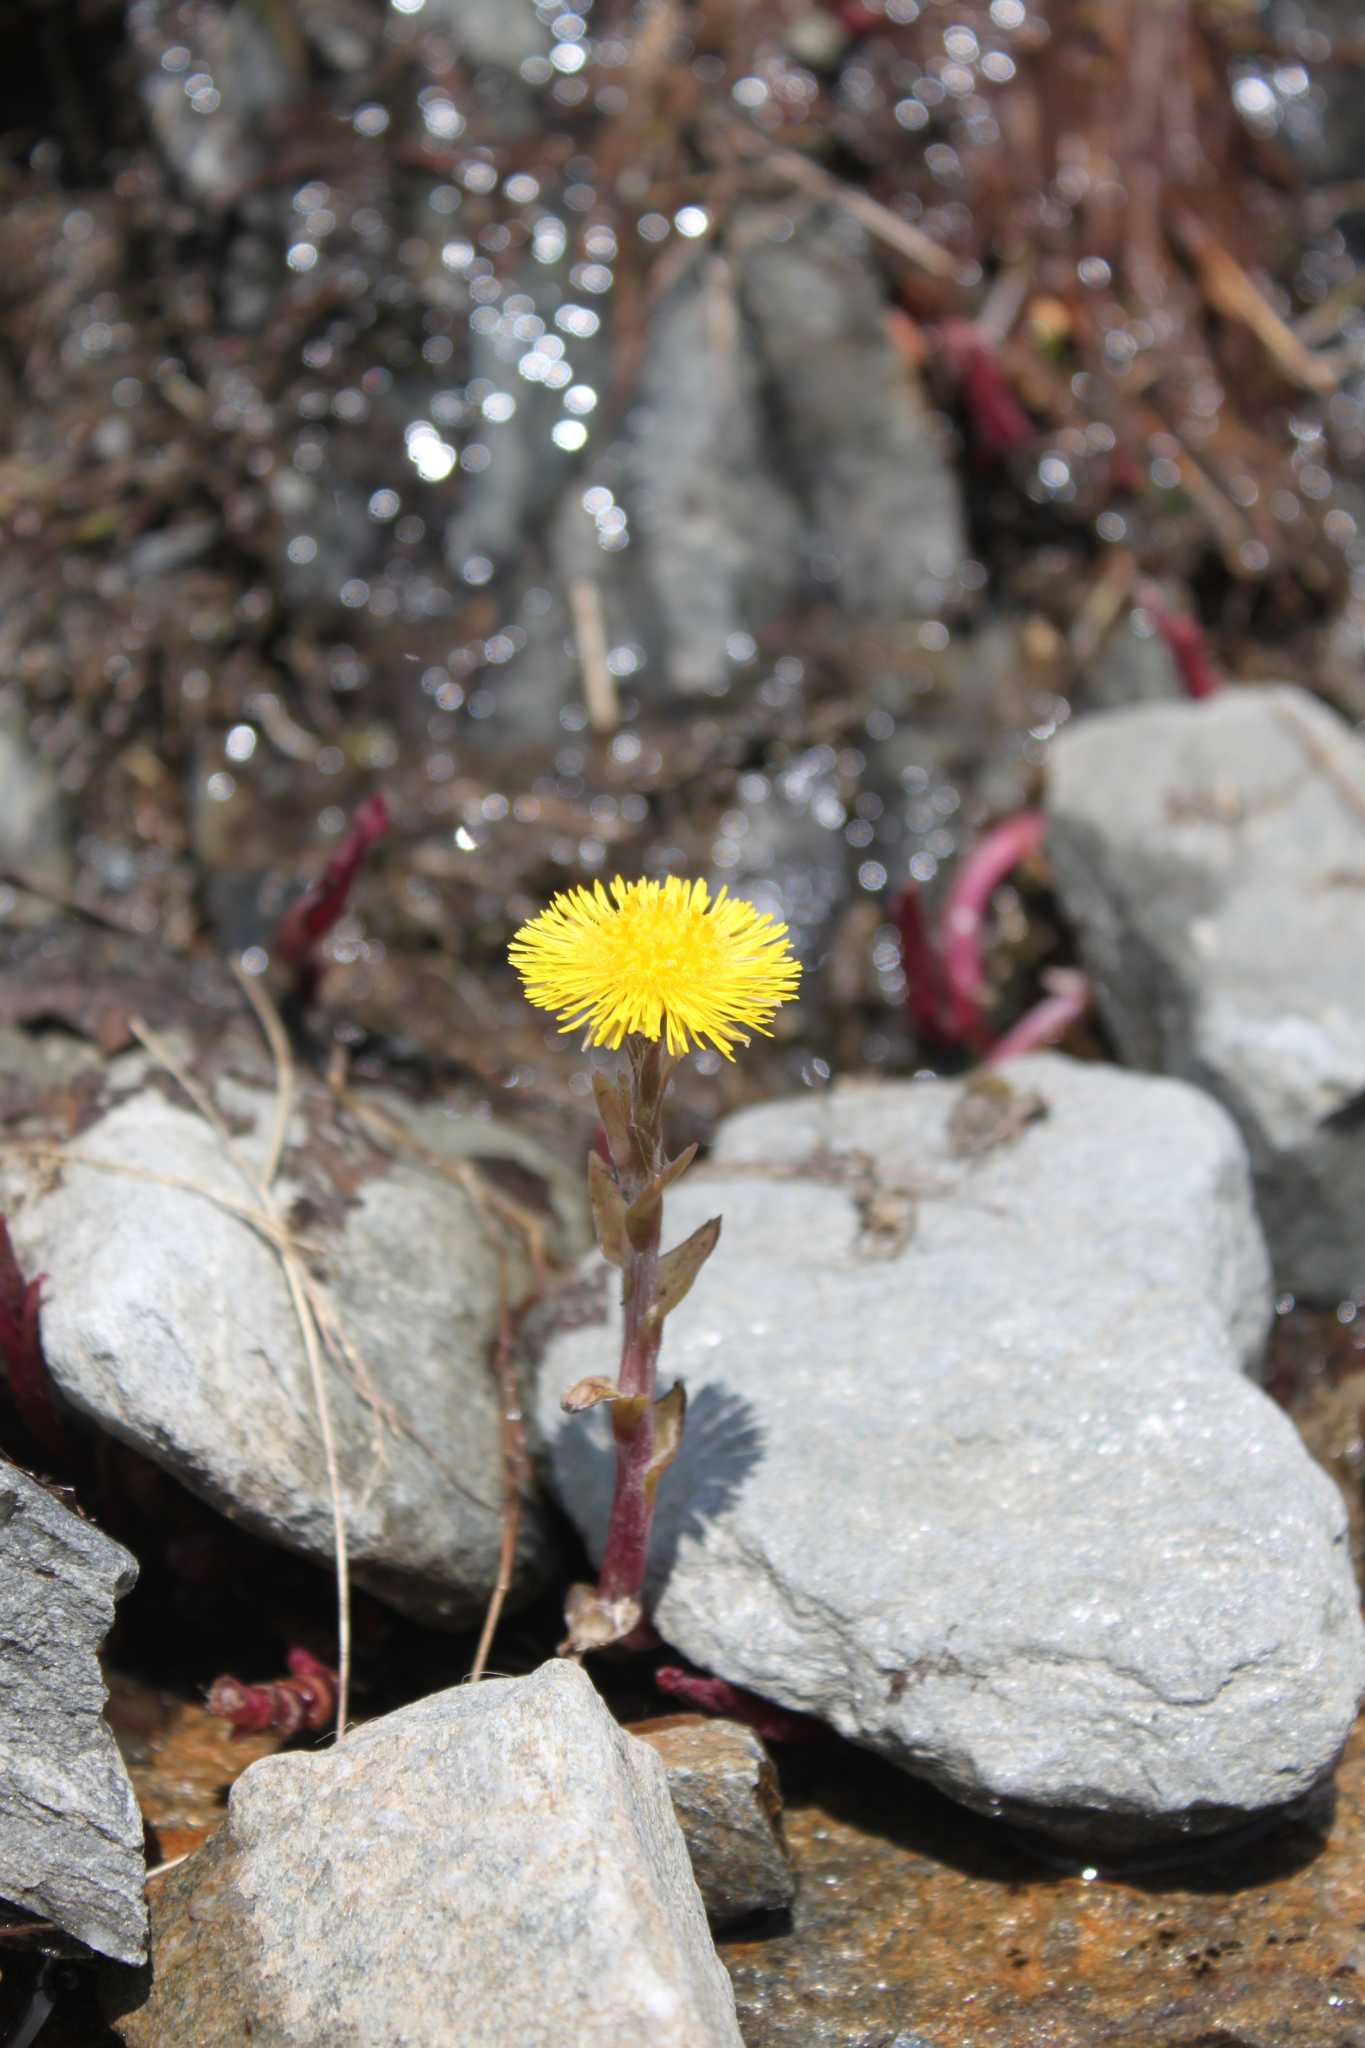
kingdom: Plantae
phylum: Tracheophyta
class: Magnoliopsida
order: Asterales
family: Asteraceae
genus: Tussilago
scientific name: Tussilago farfara
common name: Coltsfoot
